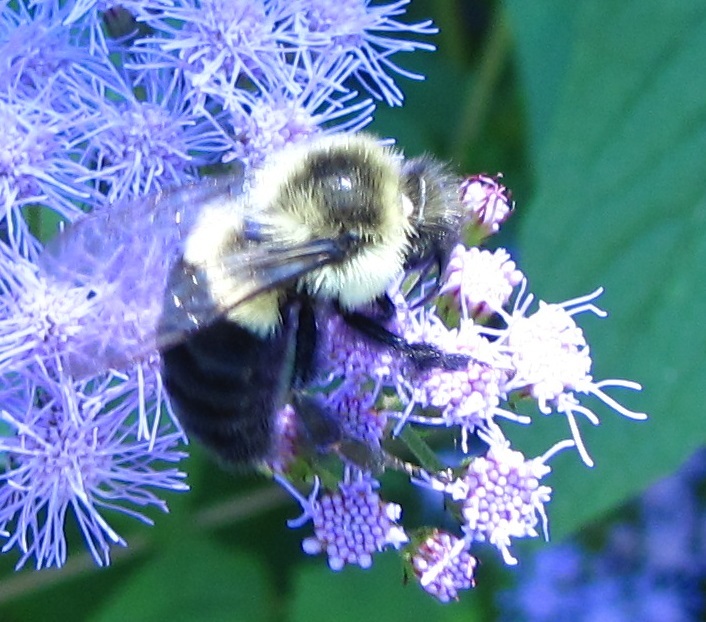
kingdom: Animalia
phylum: Arthropoda
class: Insecta
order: Hymenoptera
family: Apidae
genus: Bombus
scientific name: Bombus impatiens
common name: Common eastern bumble bee
